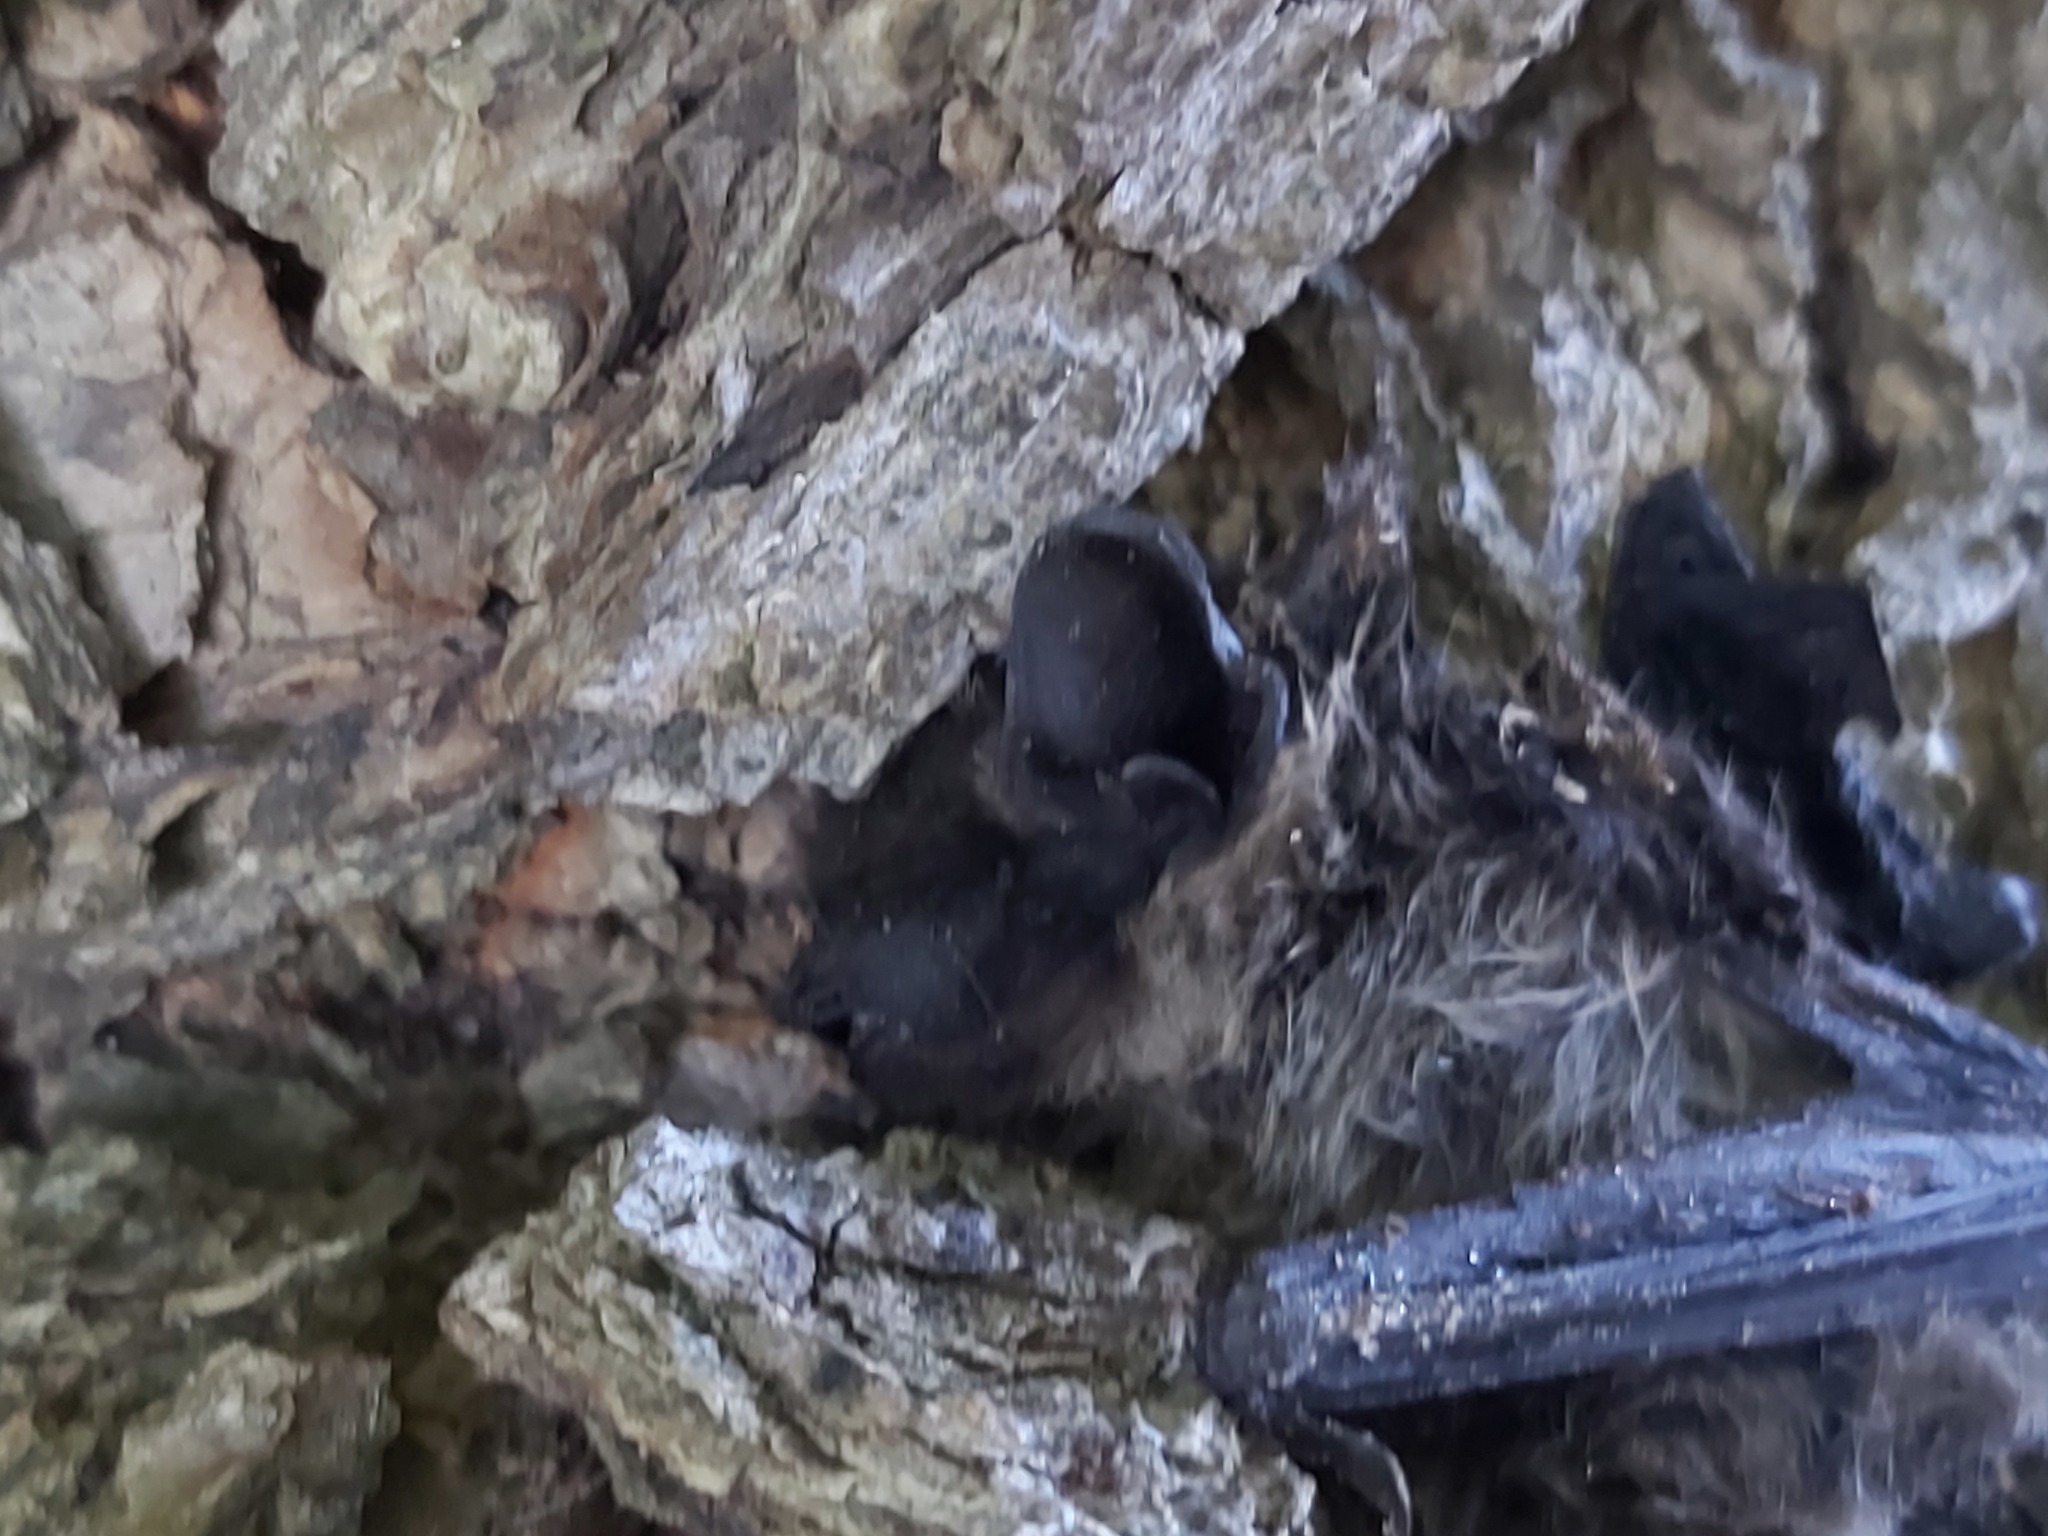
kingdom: Animalia
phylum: Chordata
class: Mammalia
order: Chiroptera
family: Vespertilionidae
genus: Eptesicus
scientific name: Eptesicus nilssonii
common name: Northern bat
